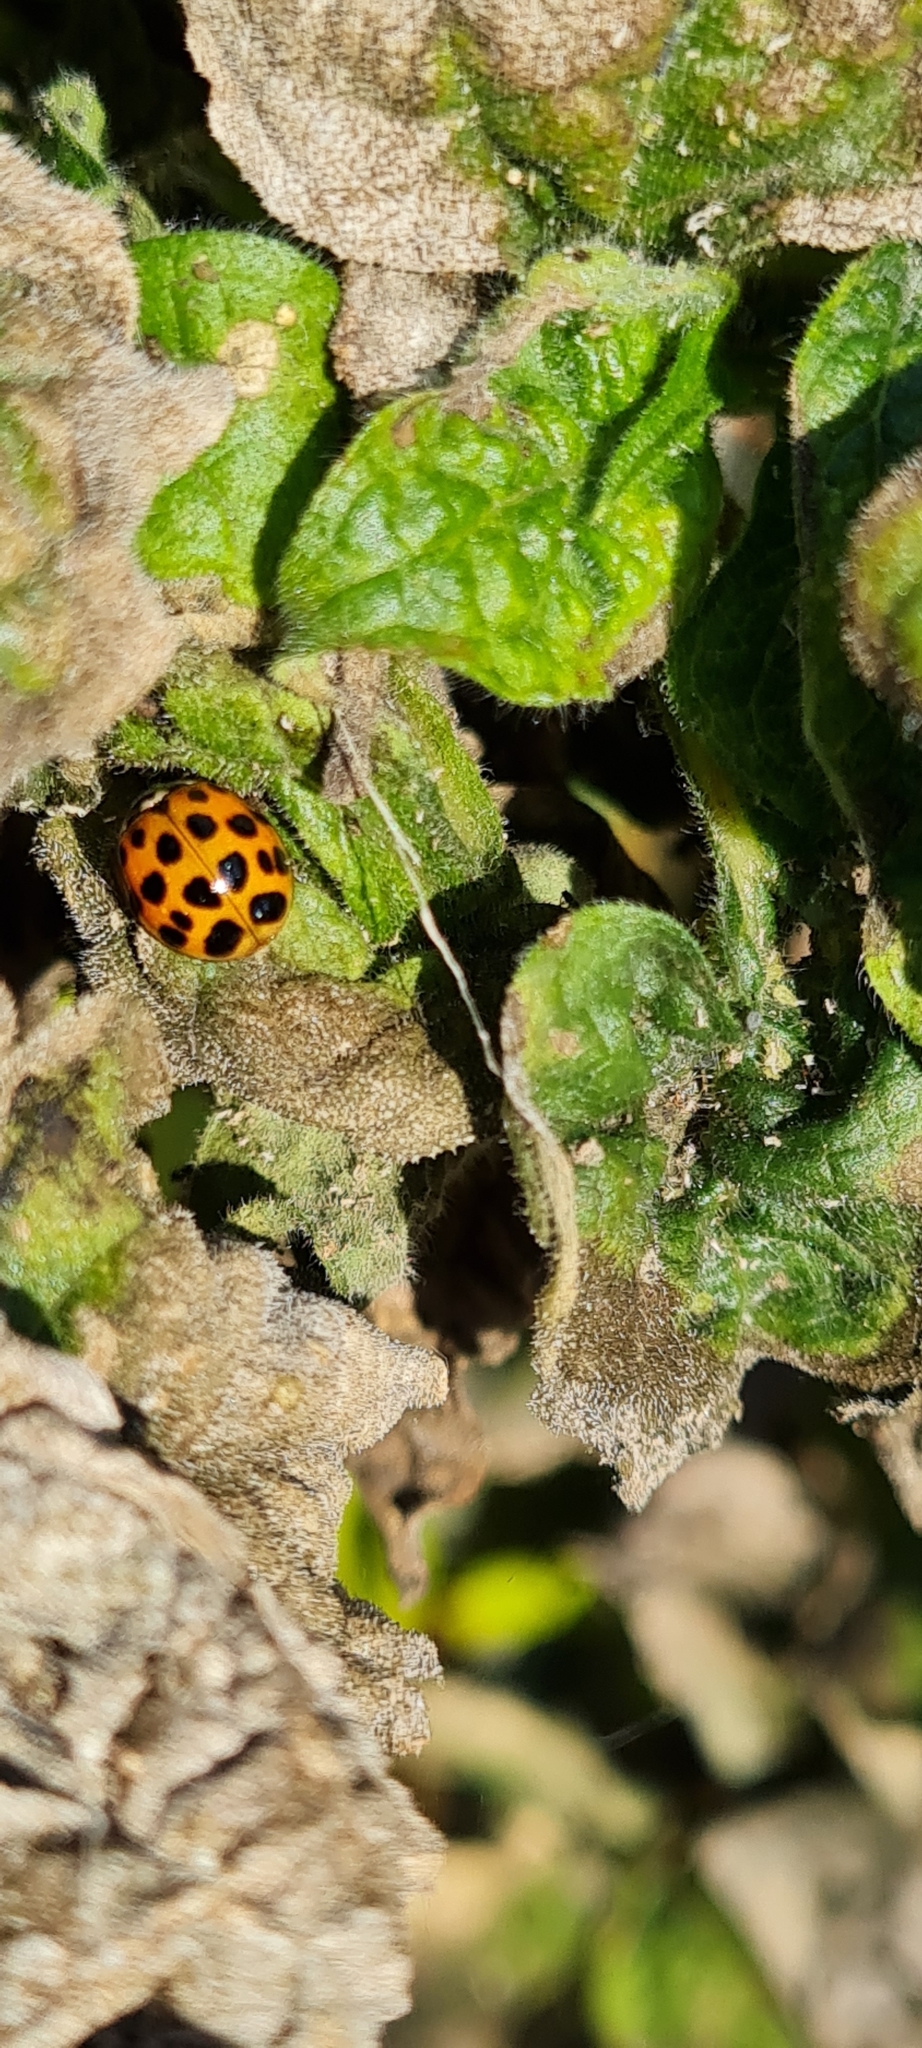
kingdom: Animalia
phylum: Arthropoda
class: Insecta
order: Coleoptera
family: Coccinellidae
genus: Harmonia
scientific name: Harmonia axyridis
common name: Harlequin ladybird
